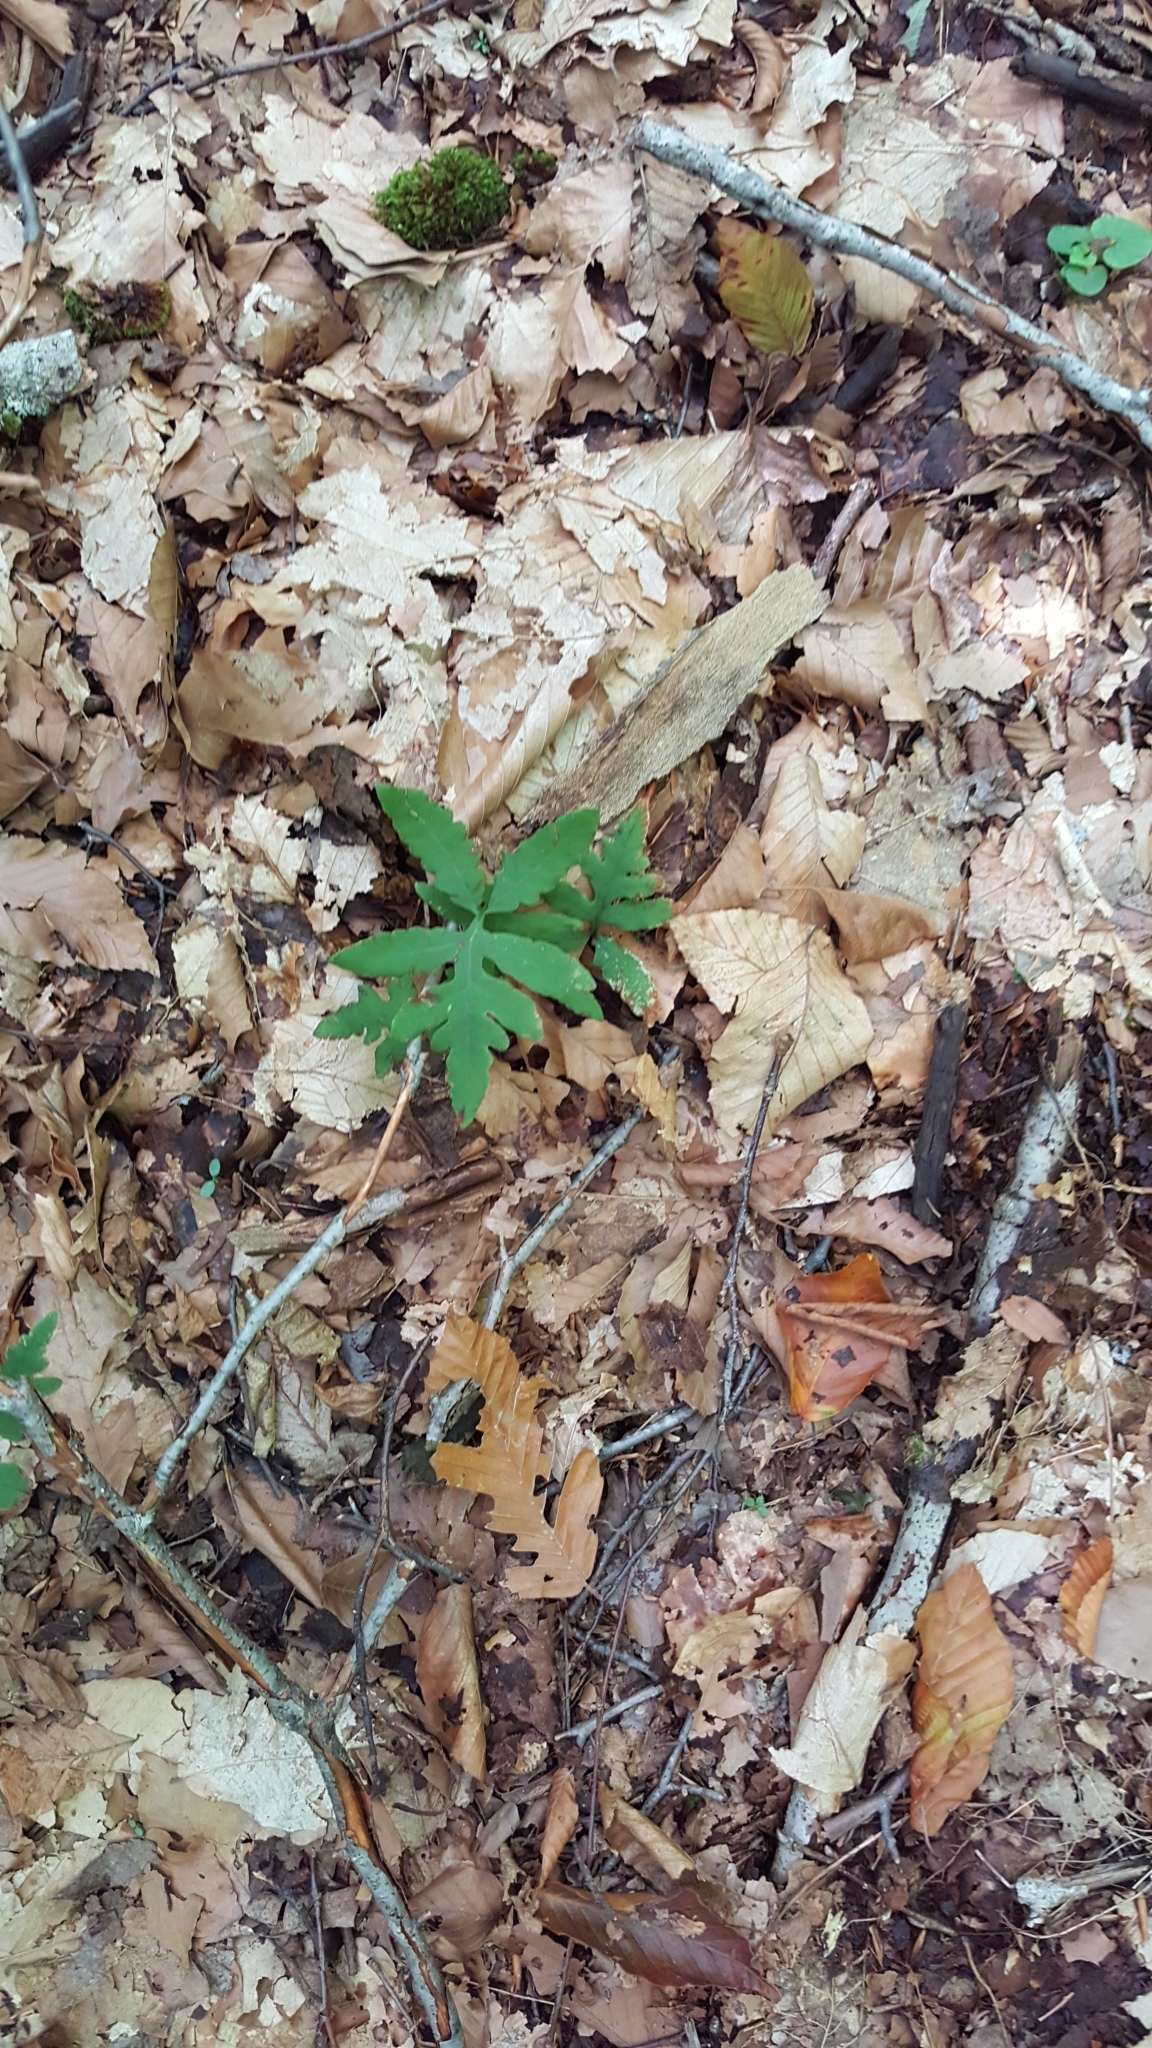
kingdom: Plantae
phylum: Tracheophyta
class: Polypodiopsida
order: Polypodiales
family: Onocleaceae
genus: Onoclea
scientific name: Onoclea sensibilis
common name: Sensitive fern
